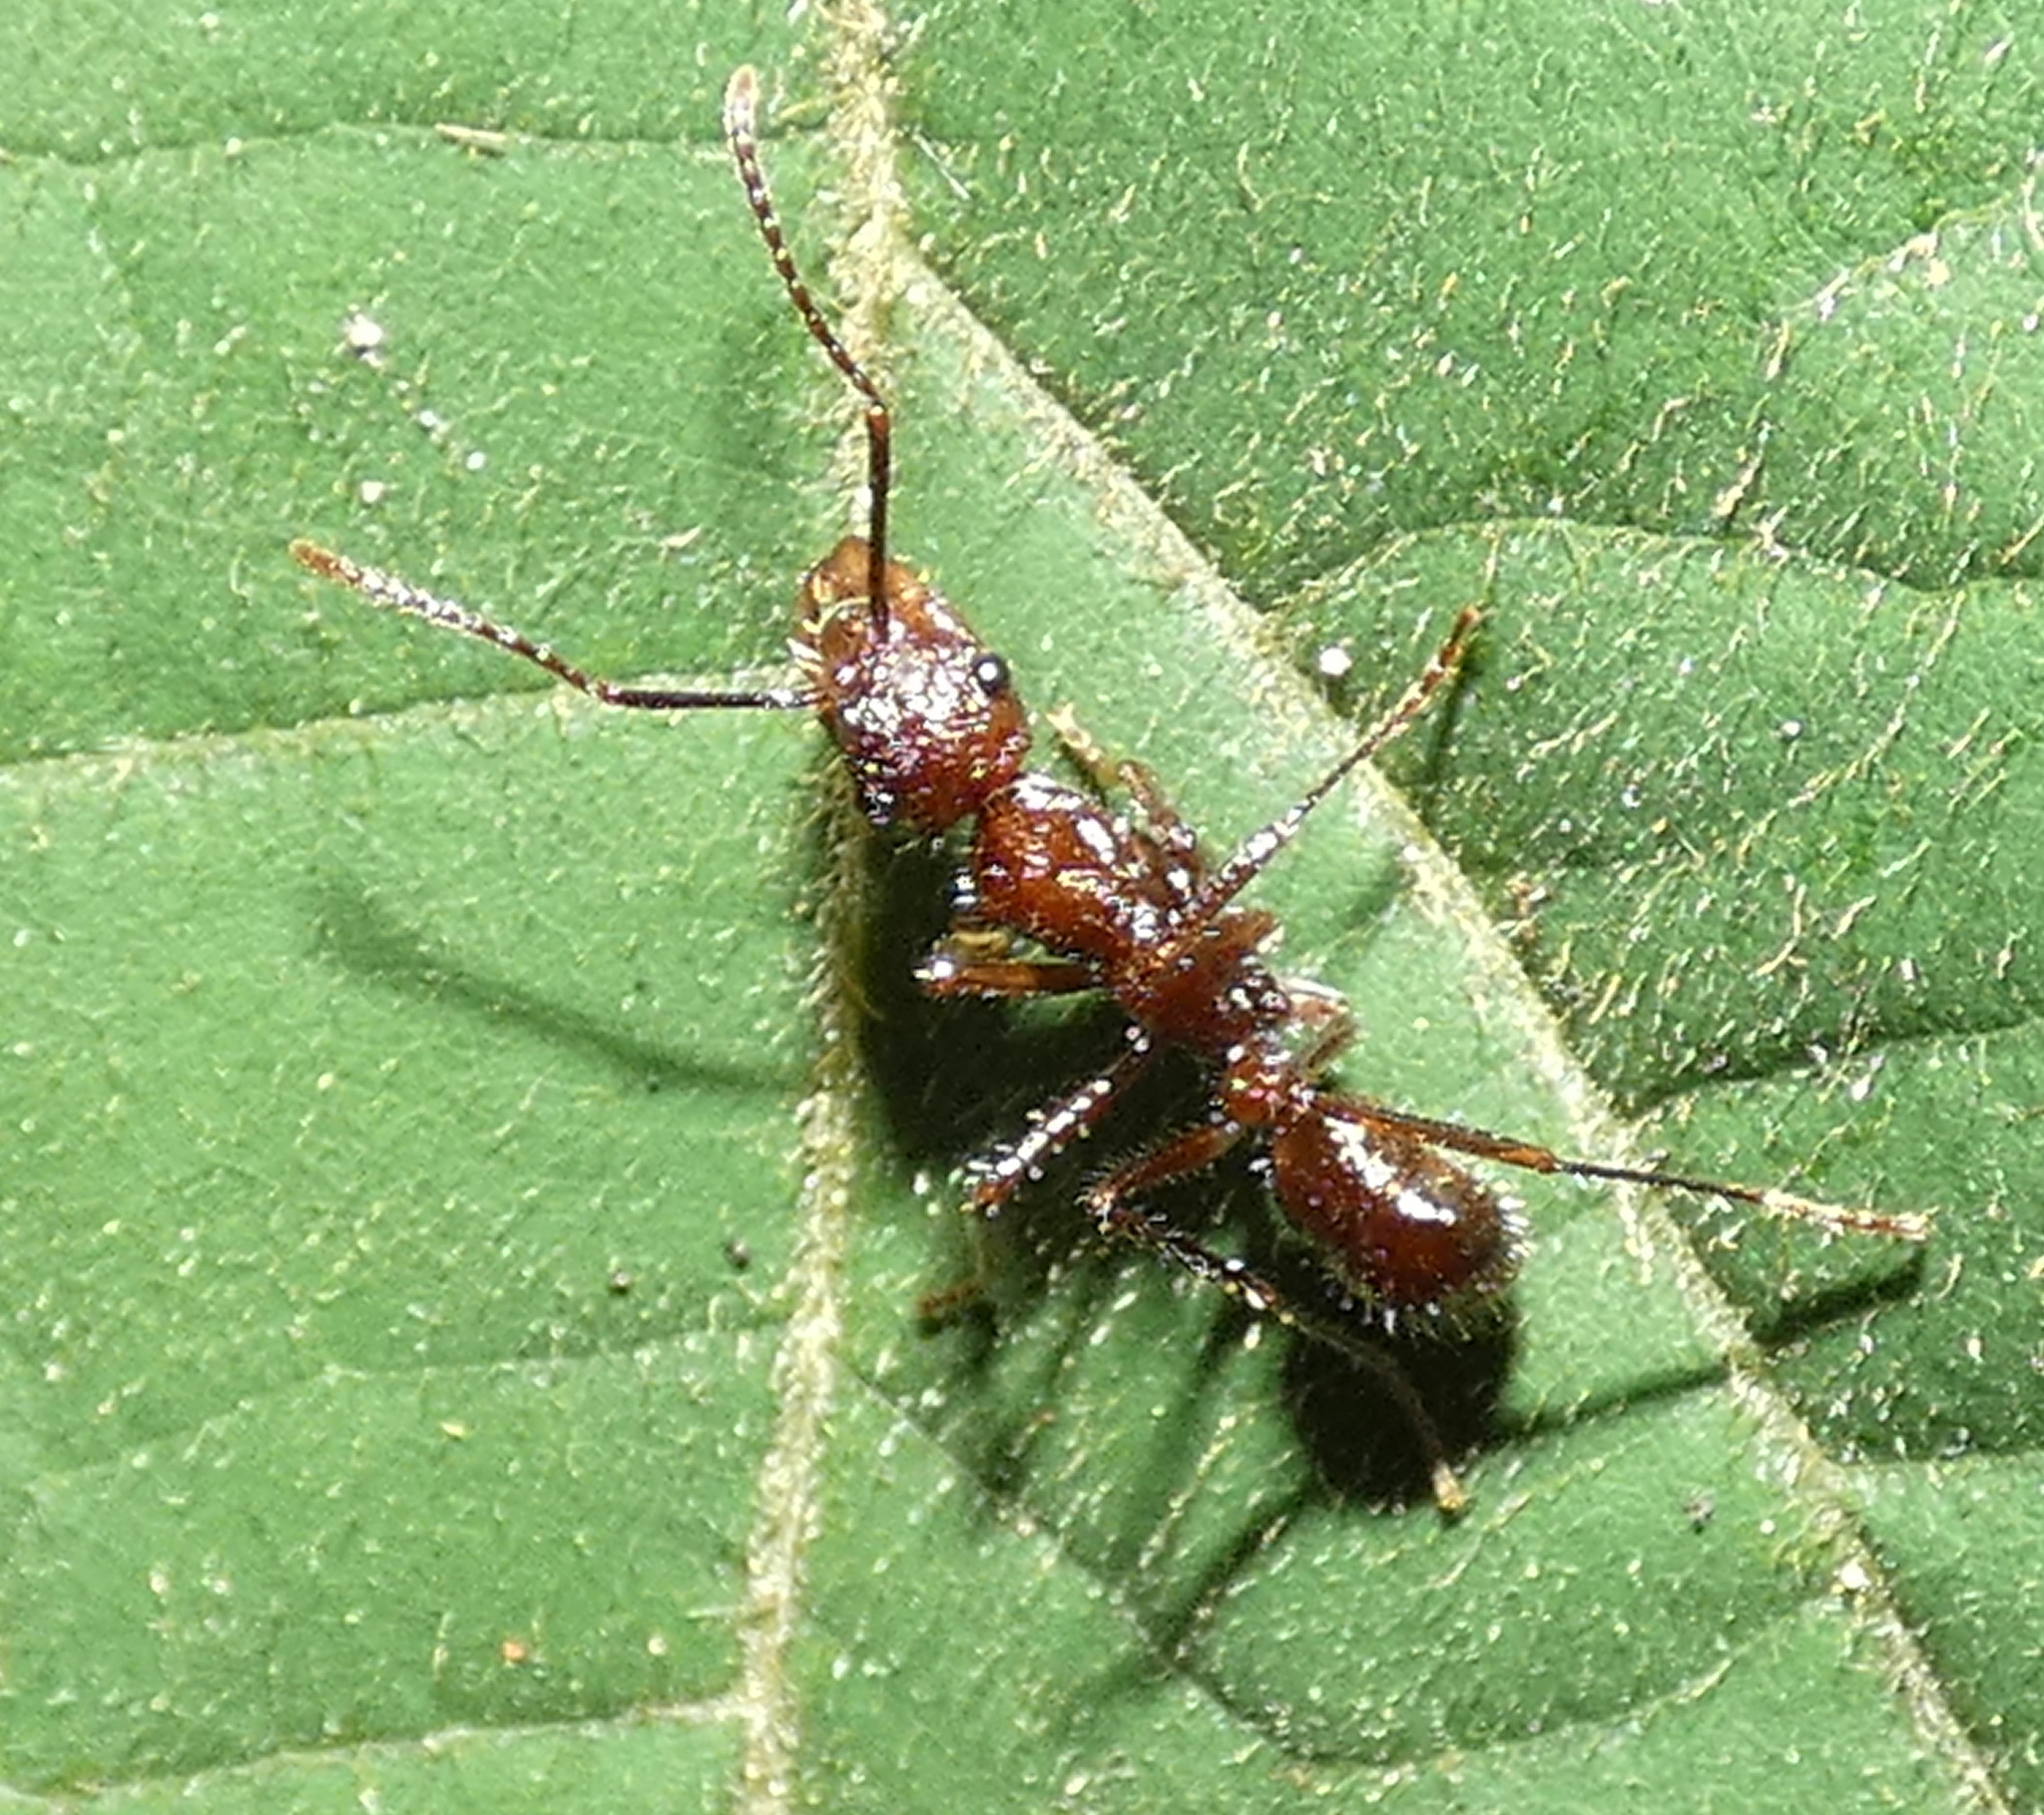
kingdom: Animalia
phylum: Arthropoda
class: Insecta
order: Hymenoptera
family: Formicidae
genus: Ectatomma
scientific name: Ectatomma tuberculatum
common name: Ant
